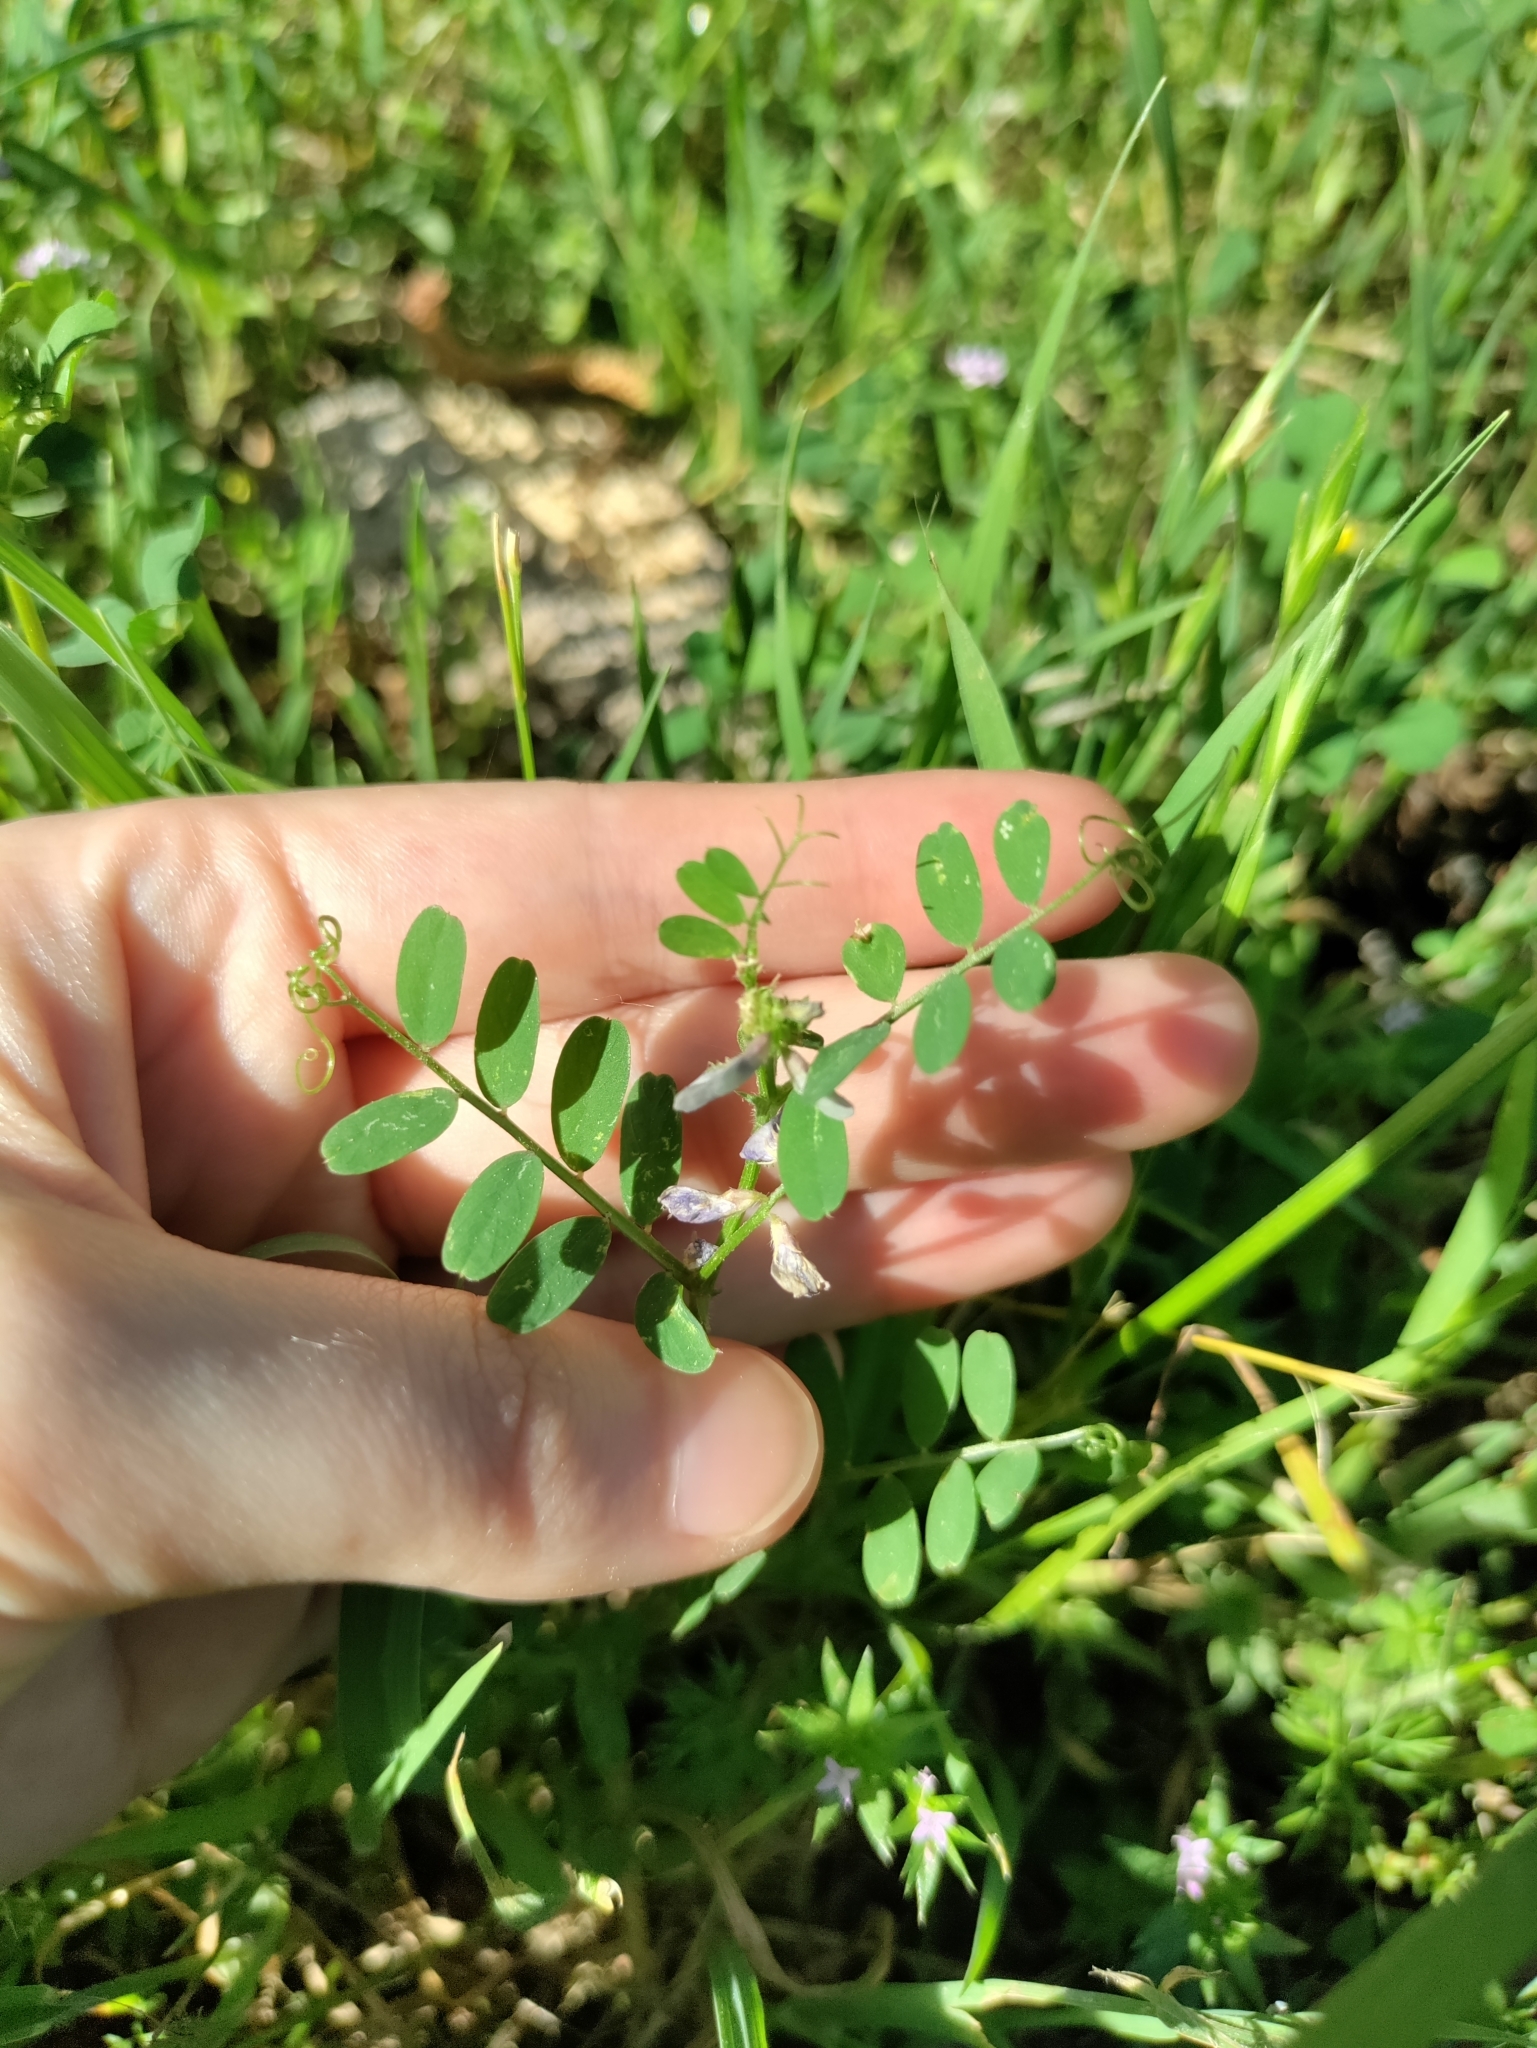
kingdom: Plantae
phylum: Tracheophyta
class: Magnoliopsida
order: Fabales
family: Fabaceae
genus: Vicia
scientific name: Vicia ludoviciana
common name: Louisiana vetch
